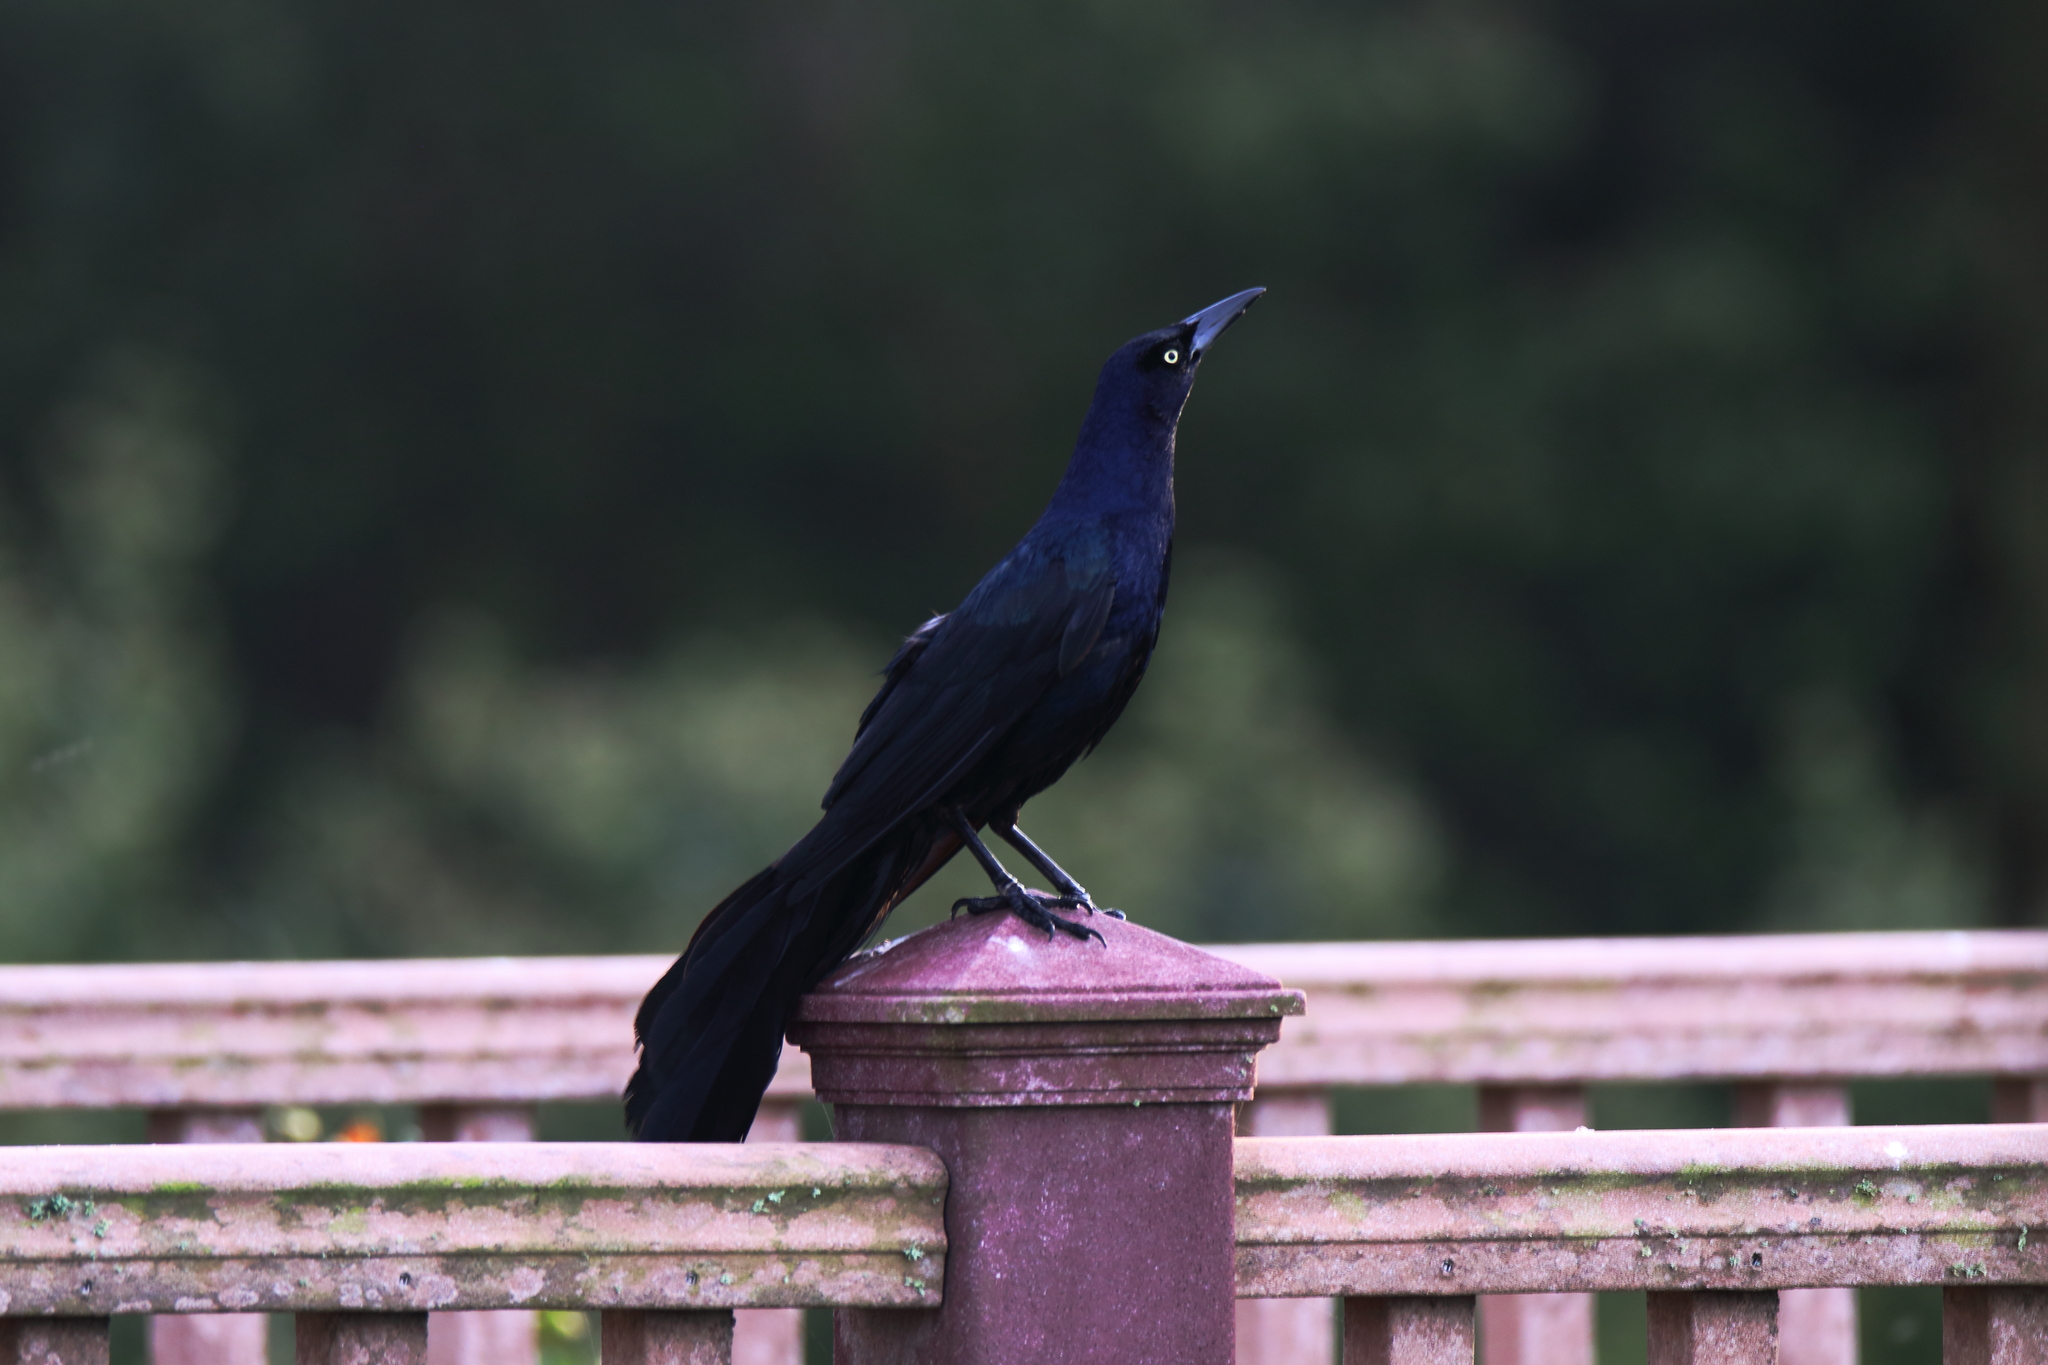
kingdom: Animalia
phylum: Chordata
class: Aves
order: Passeriformes
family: Icteridae
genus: Quiscalus
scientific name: Quiscalus mexicanus
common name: Great-tailed grackle
